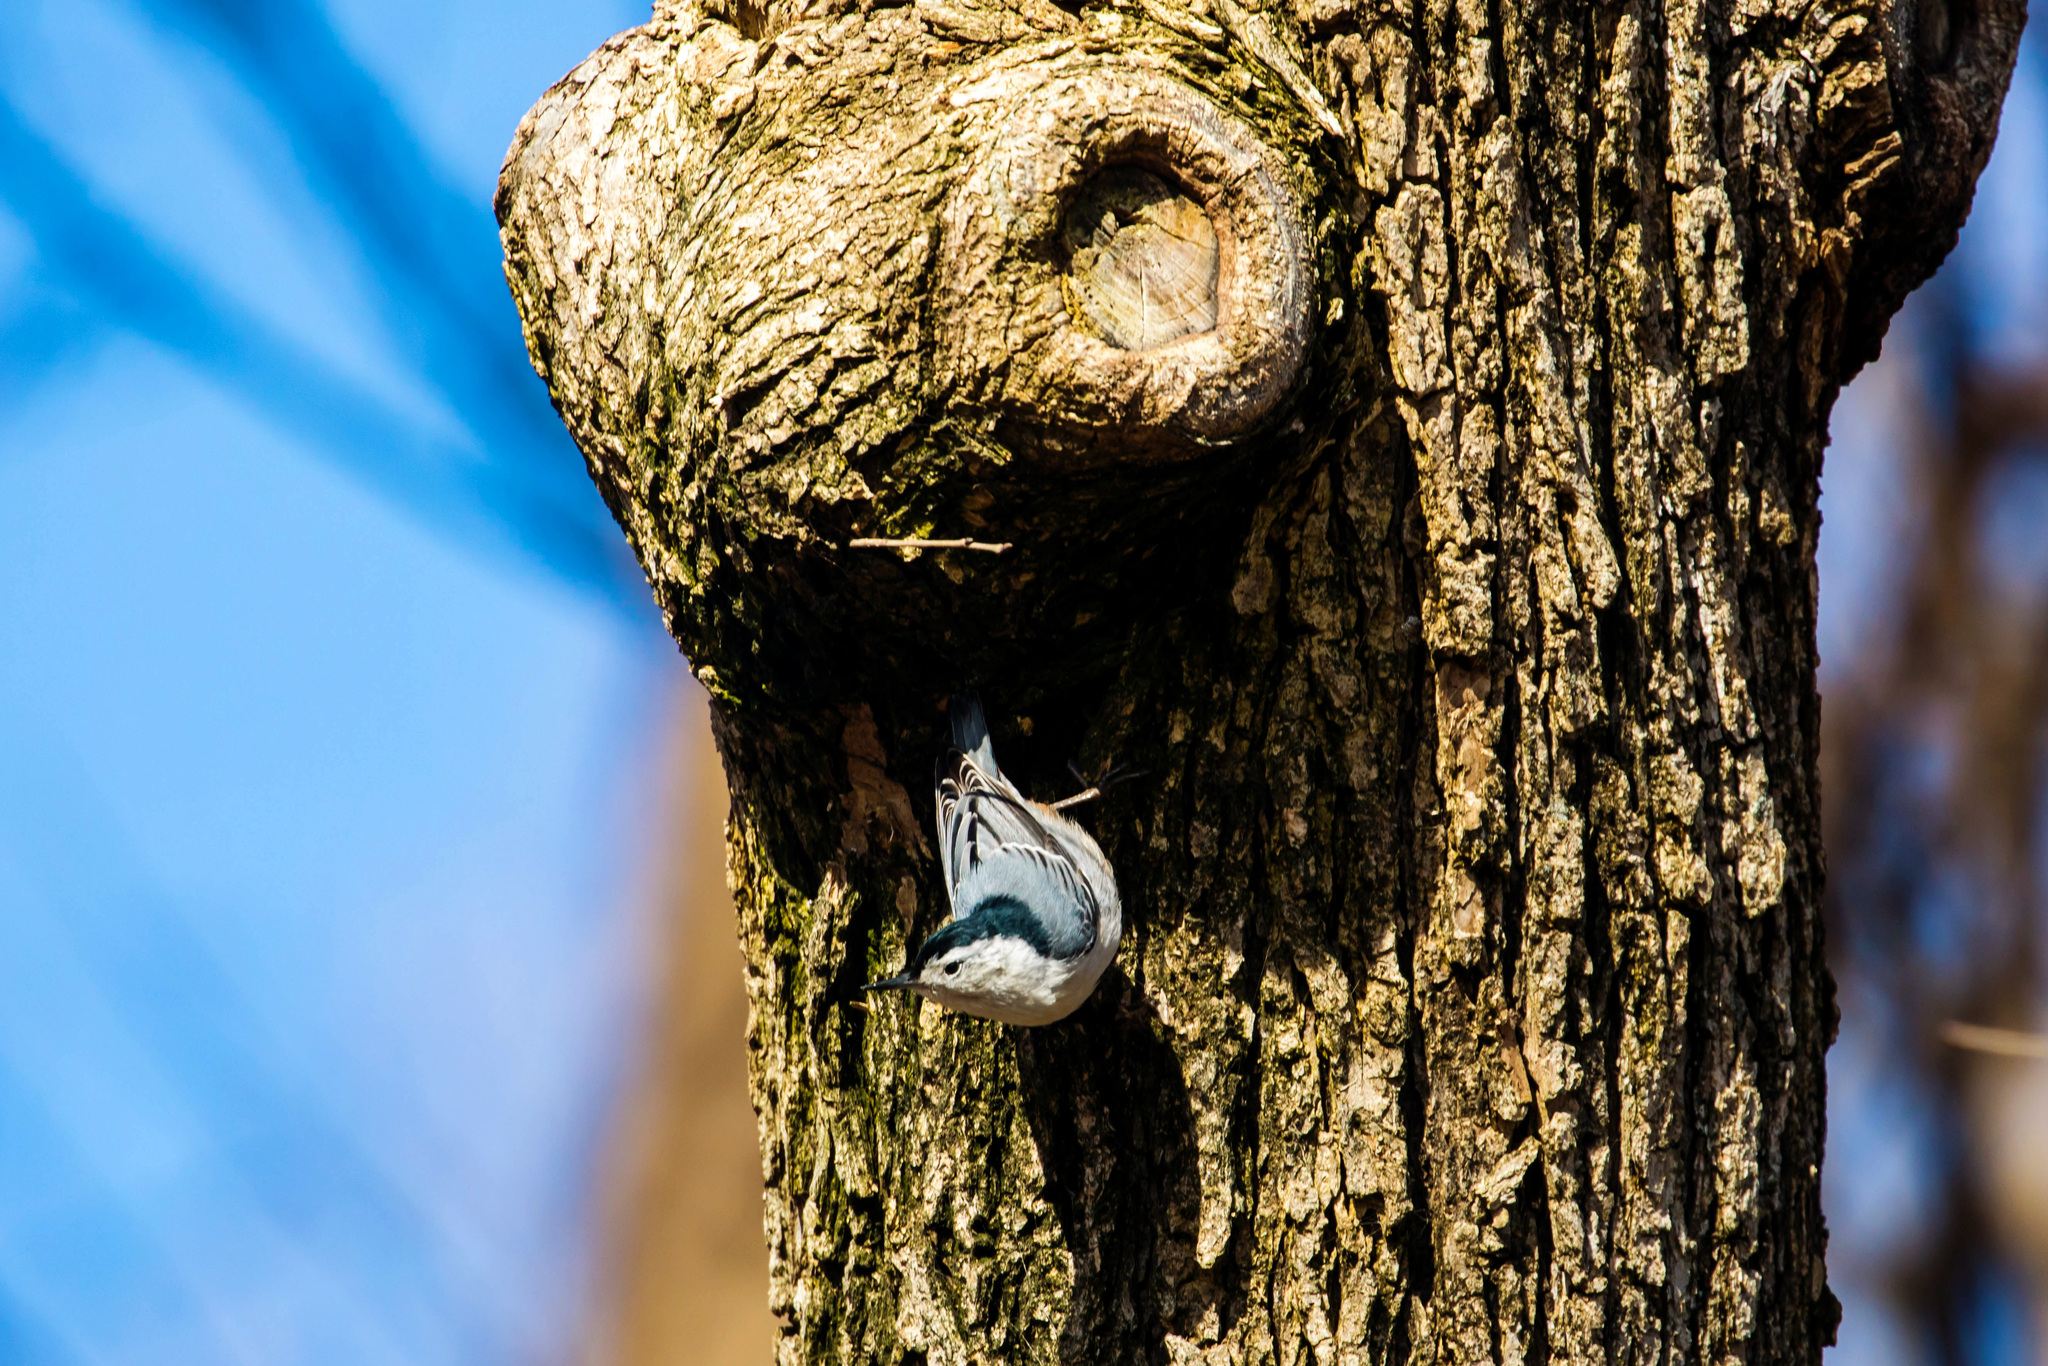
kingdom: Animalia
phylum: Chordata
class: Aves
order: Passeriformes
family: Sittidae
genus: Sitta
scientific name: Sitta carolinensis
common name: White-breasted nuthatch
